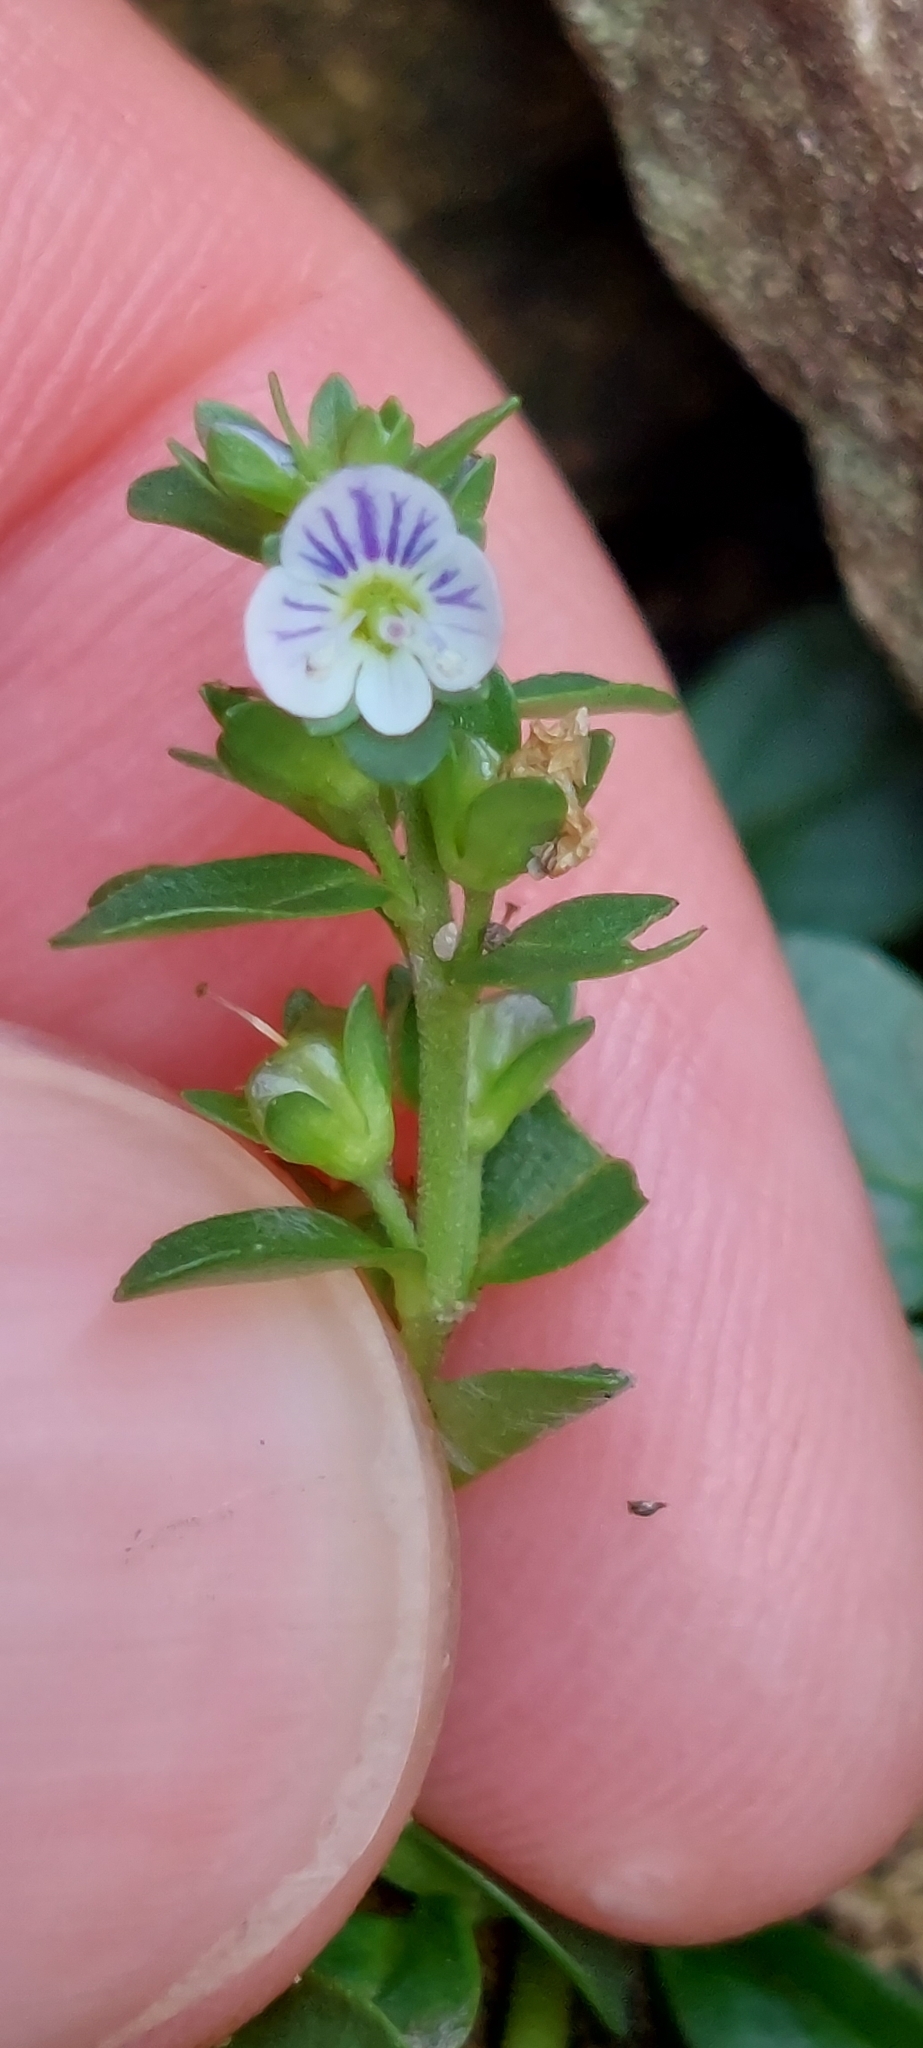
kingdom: Plantae
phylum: Tracheophyta
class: Magnoliopsida
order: Lamiales
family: Plantaginaceae
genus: Veronica
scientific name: Veronica serpyllifolia
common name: Thyme-leaved speedwell
